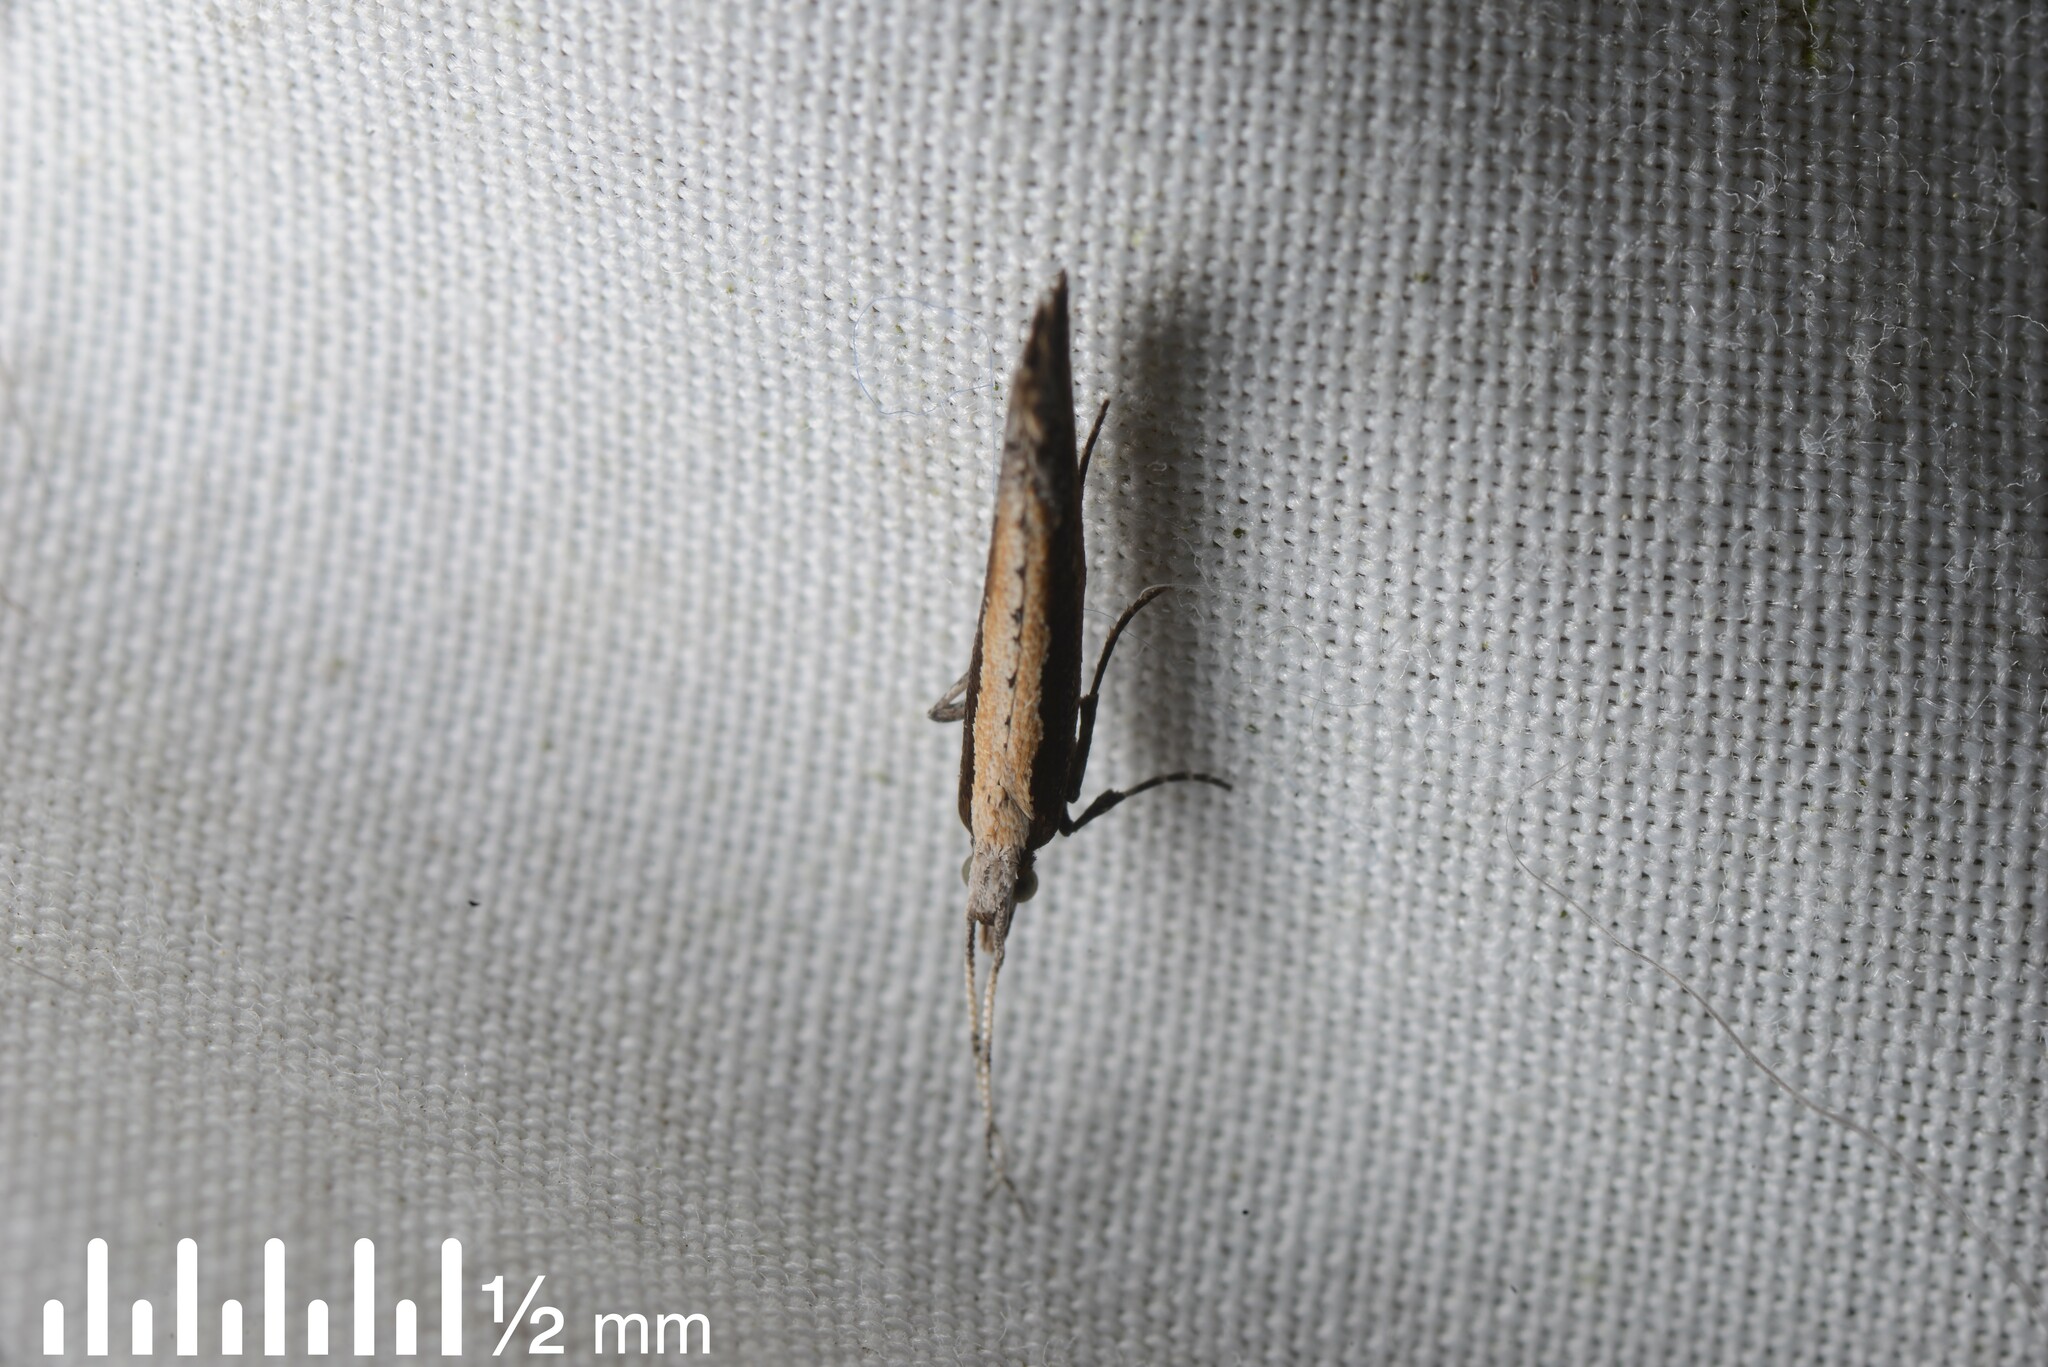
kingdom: Animalia
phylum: Arthropoda
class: Insecta
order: Lepidoptera
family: Plutellidae
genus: Plutella
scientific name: Plutella xylostella
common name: Diamond-back moth
